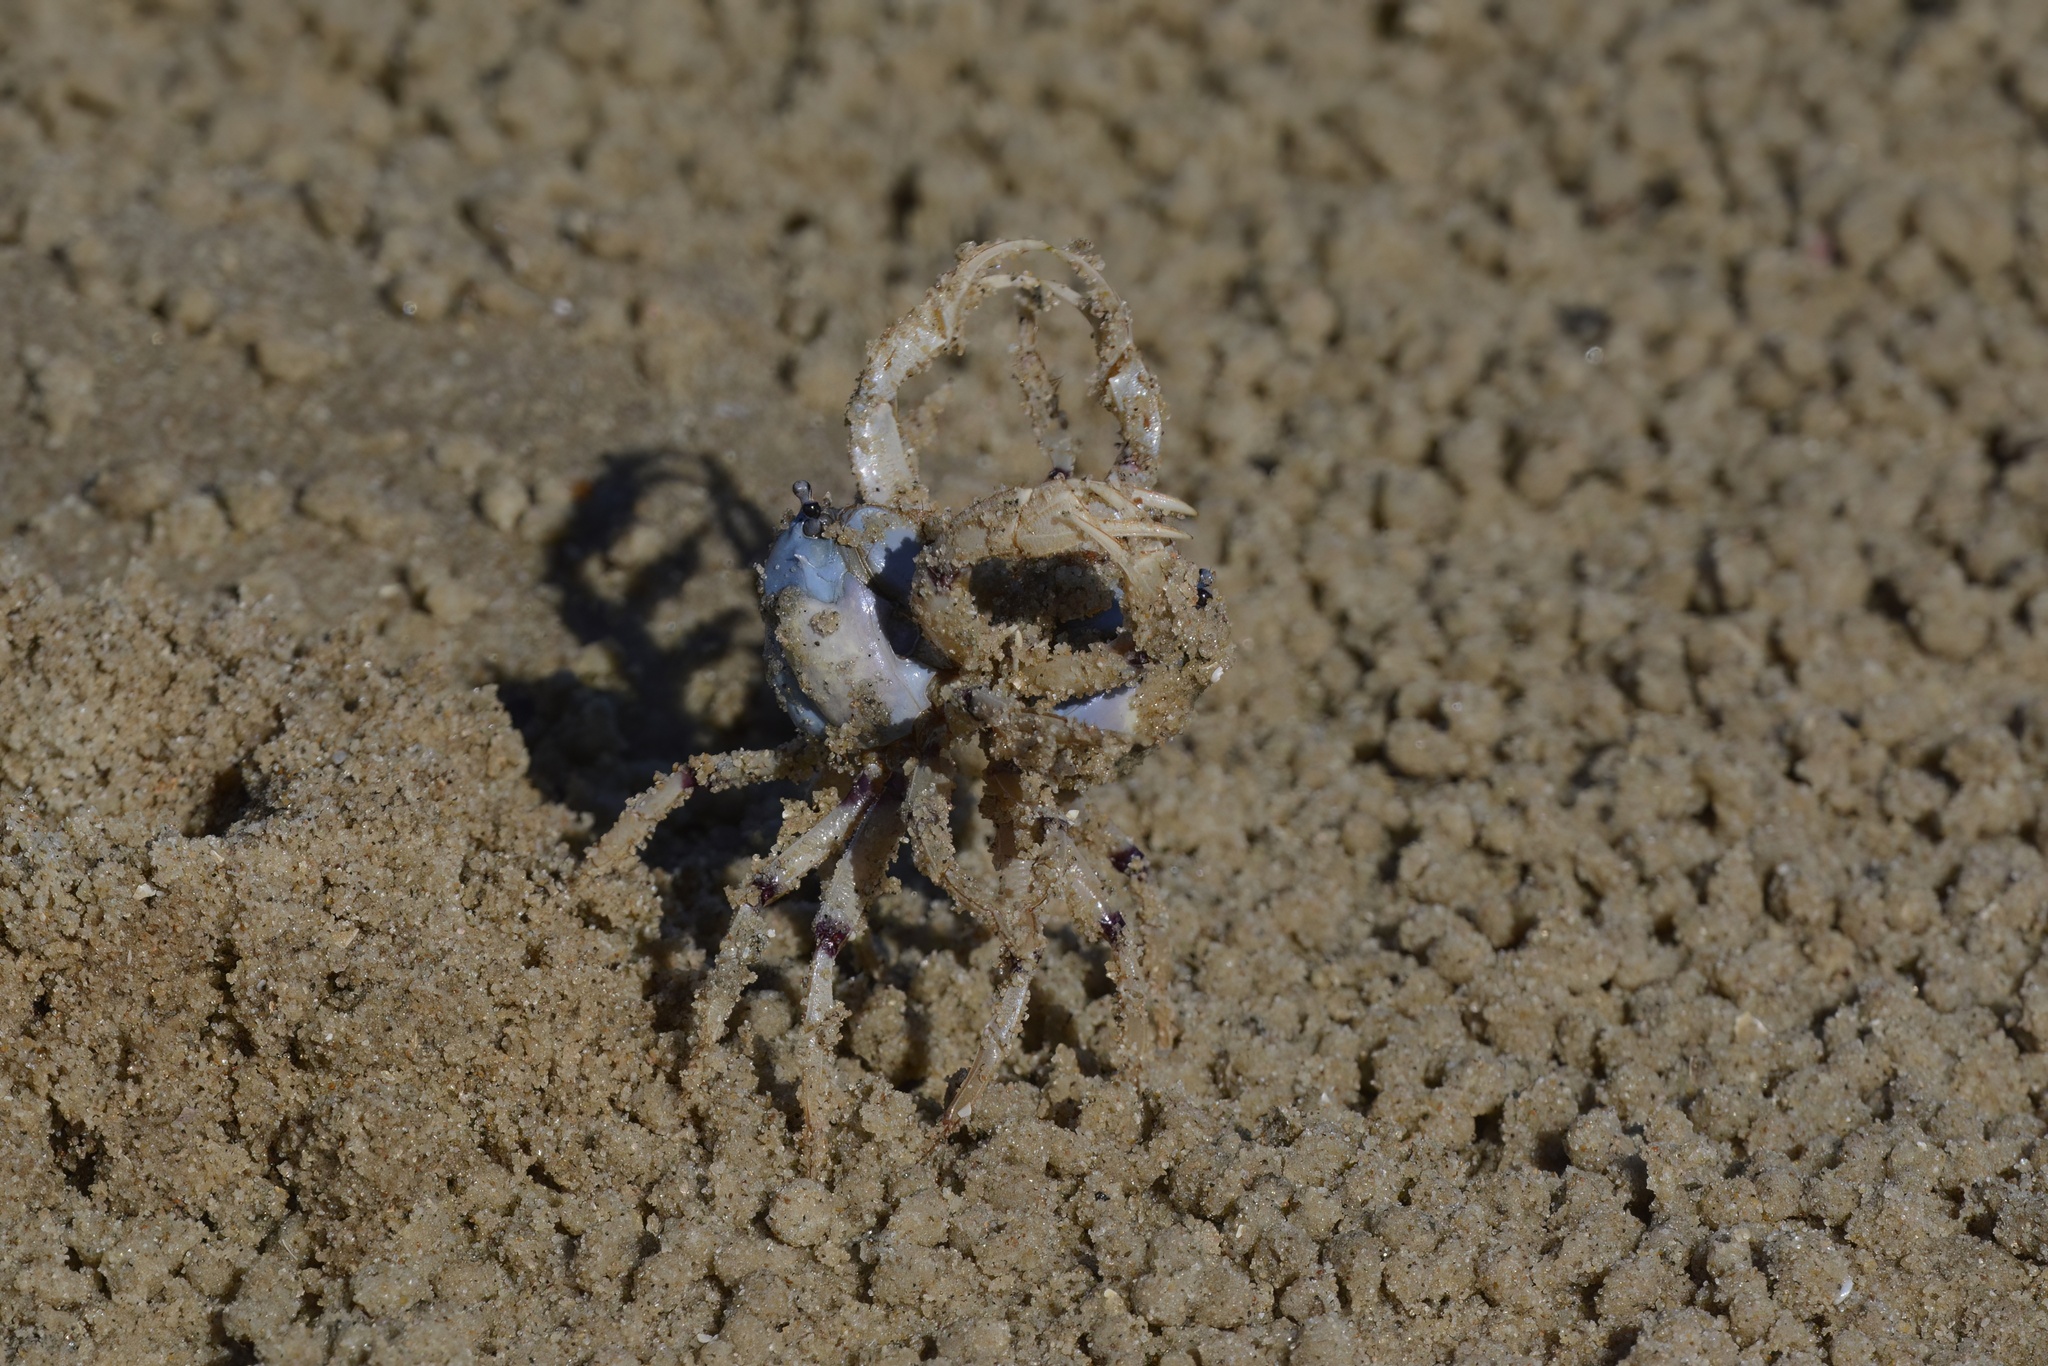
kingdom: Animalia
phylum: Arthropoda
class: Malacostraca
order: Decapoda
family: Mictyridae
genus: Mictyris
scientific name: Mictyris longicarpus
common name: Light-blue soldier crab
